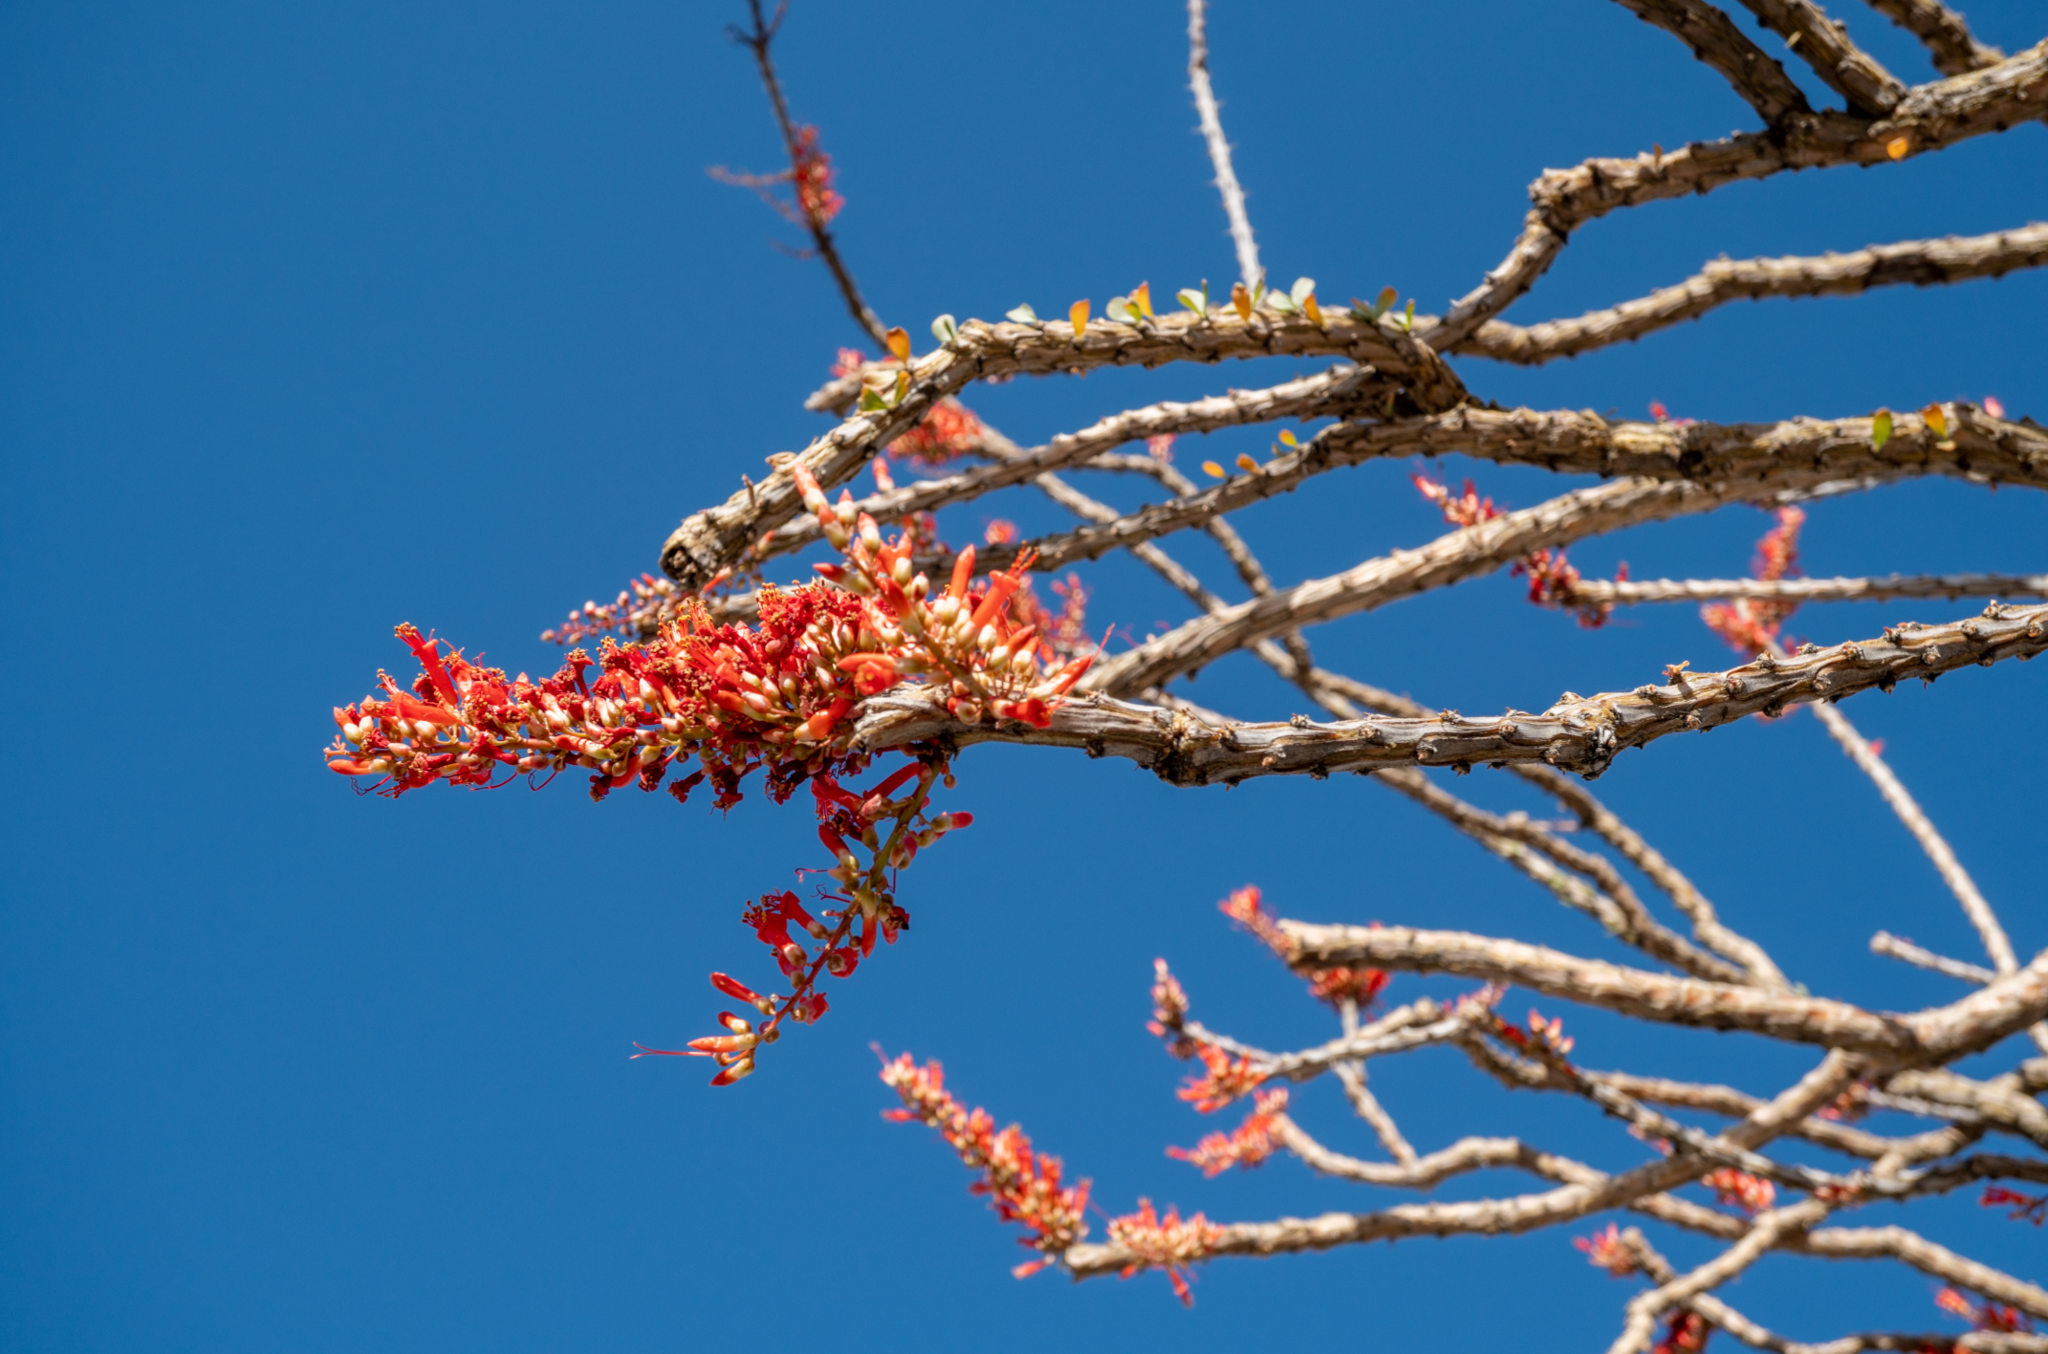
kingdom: Plantae
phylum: Tracheophyta
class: Magnoliopsida
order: Ericales
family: Fouquieriaceae
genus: Fouquieria
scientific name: Fouquieria splendens
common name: Vine-cactus
